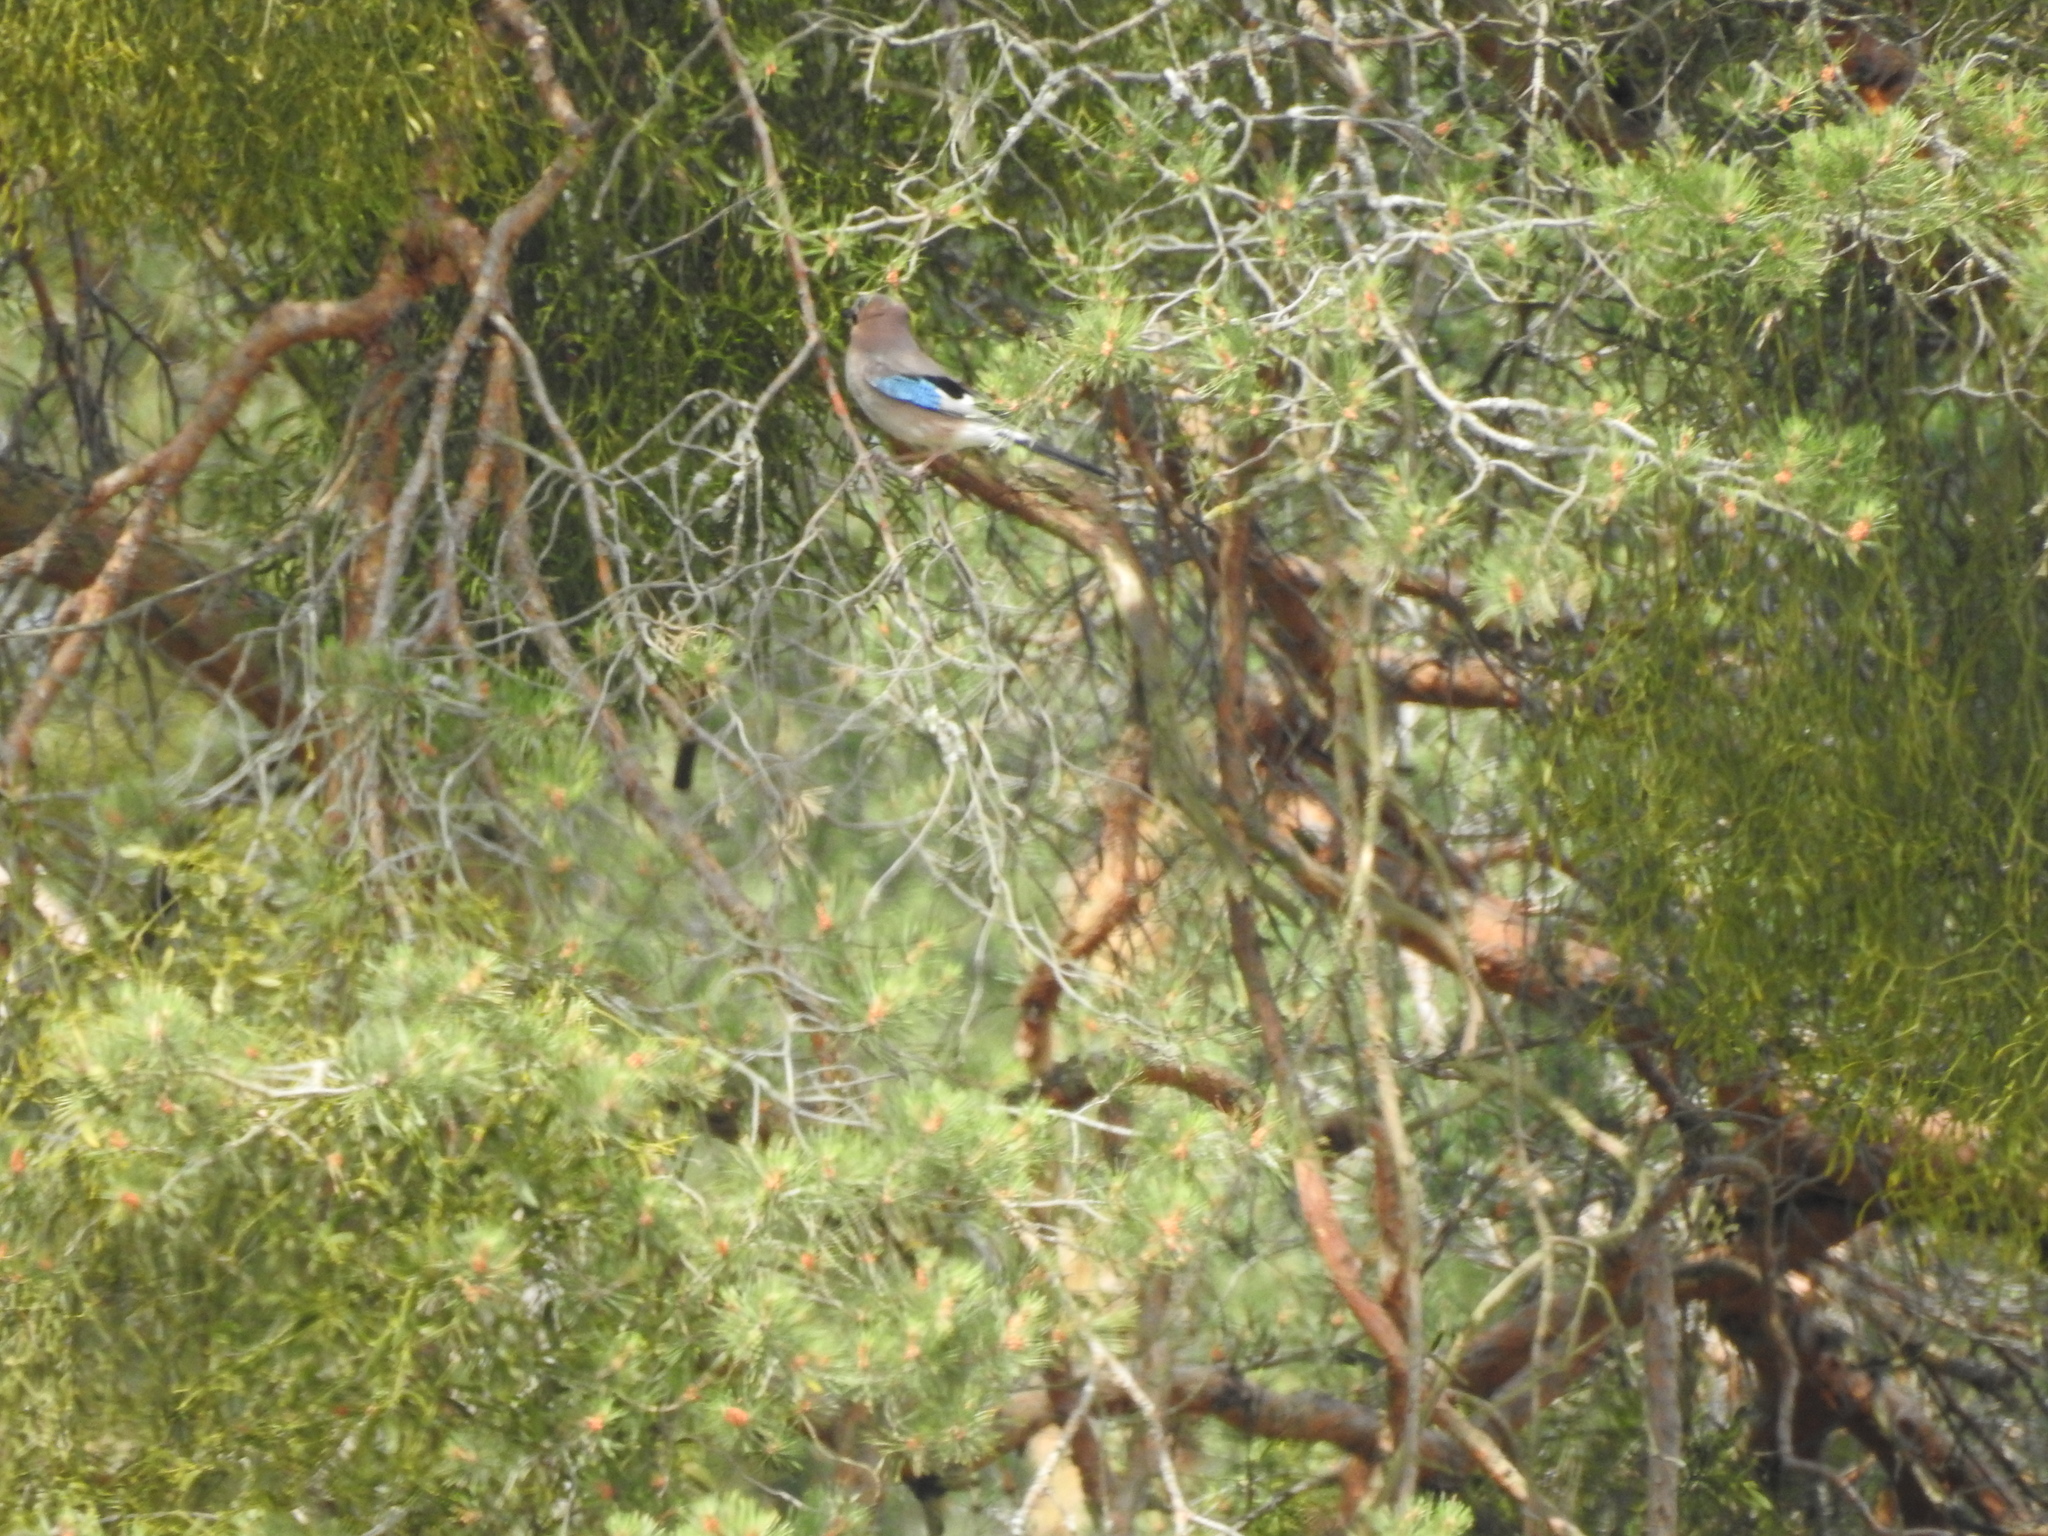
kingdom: Animalia
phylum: Chordata
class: Aves
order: Passeriformes
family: Corvidae
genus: Garrulus
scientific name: Garrulus glandarius
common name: Eurasian jay
